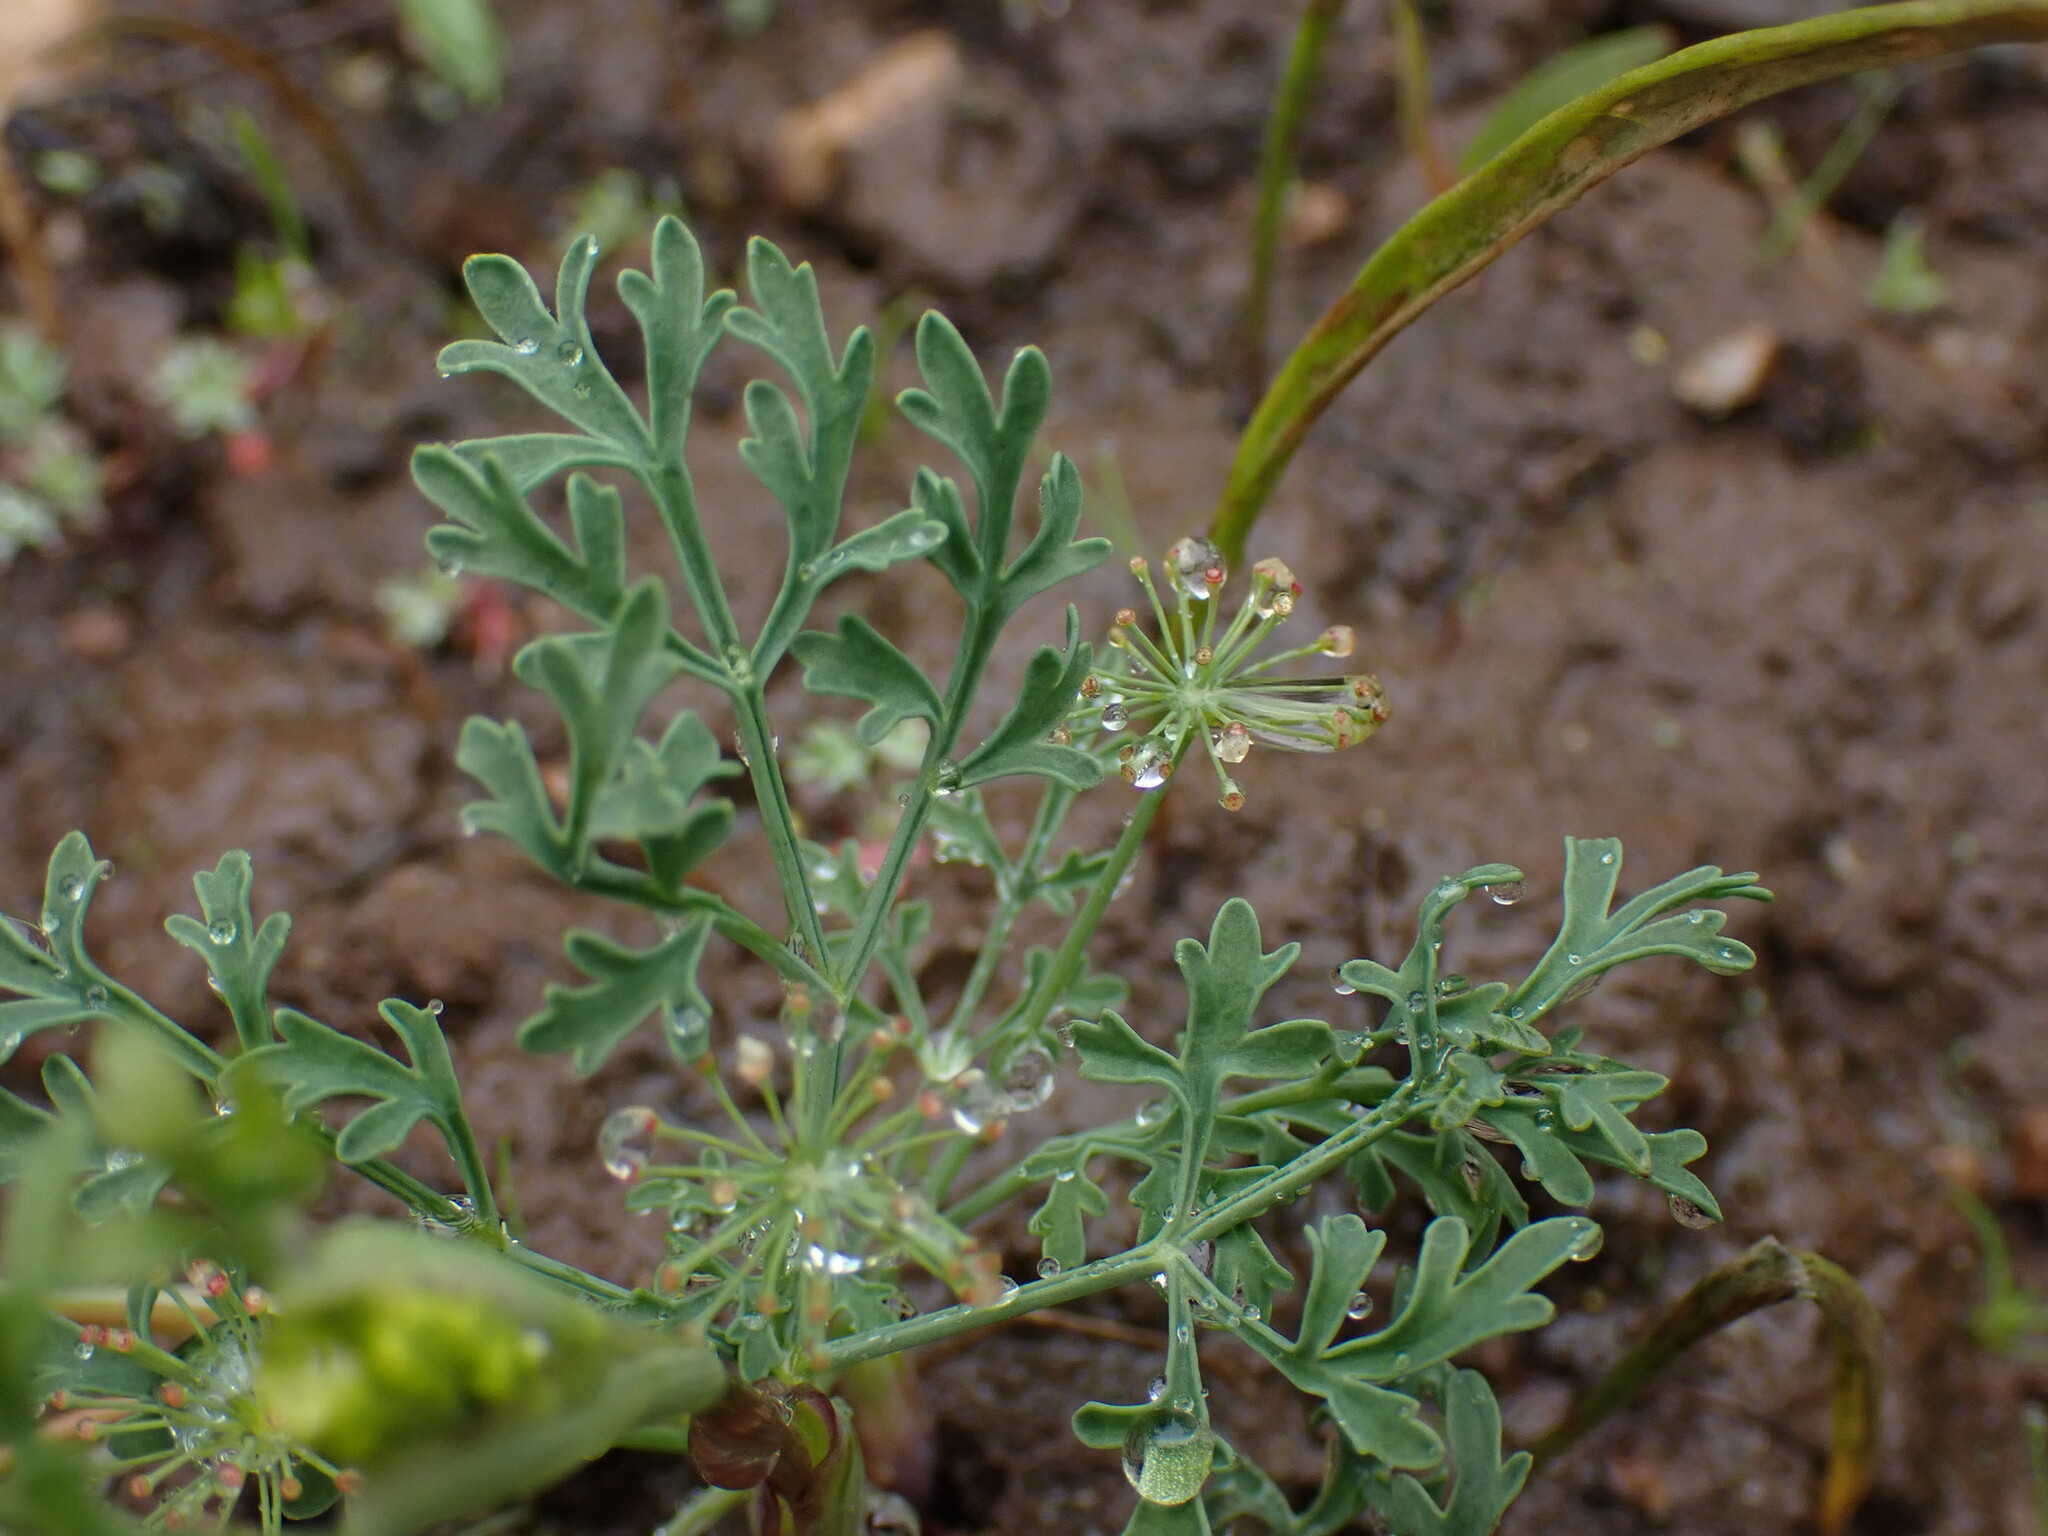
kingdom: Plantae
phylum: Tracheophyta
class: Magnoliopsida
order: Apiales
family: Apiaceae
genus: Lomatium
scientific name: Lomatium ambiguum
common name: Lacy lomatium
